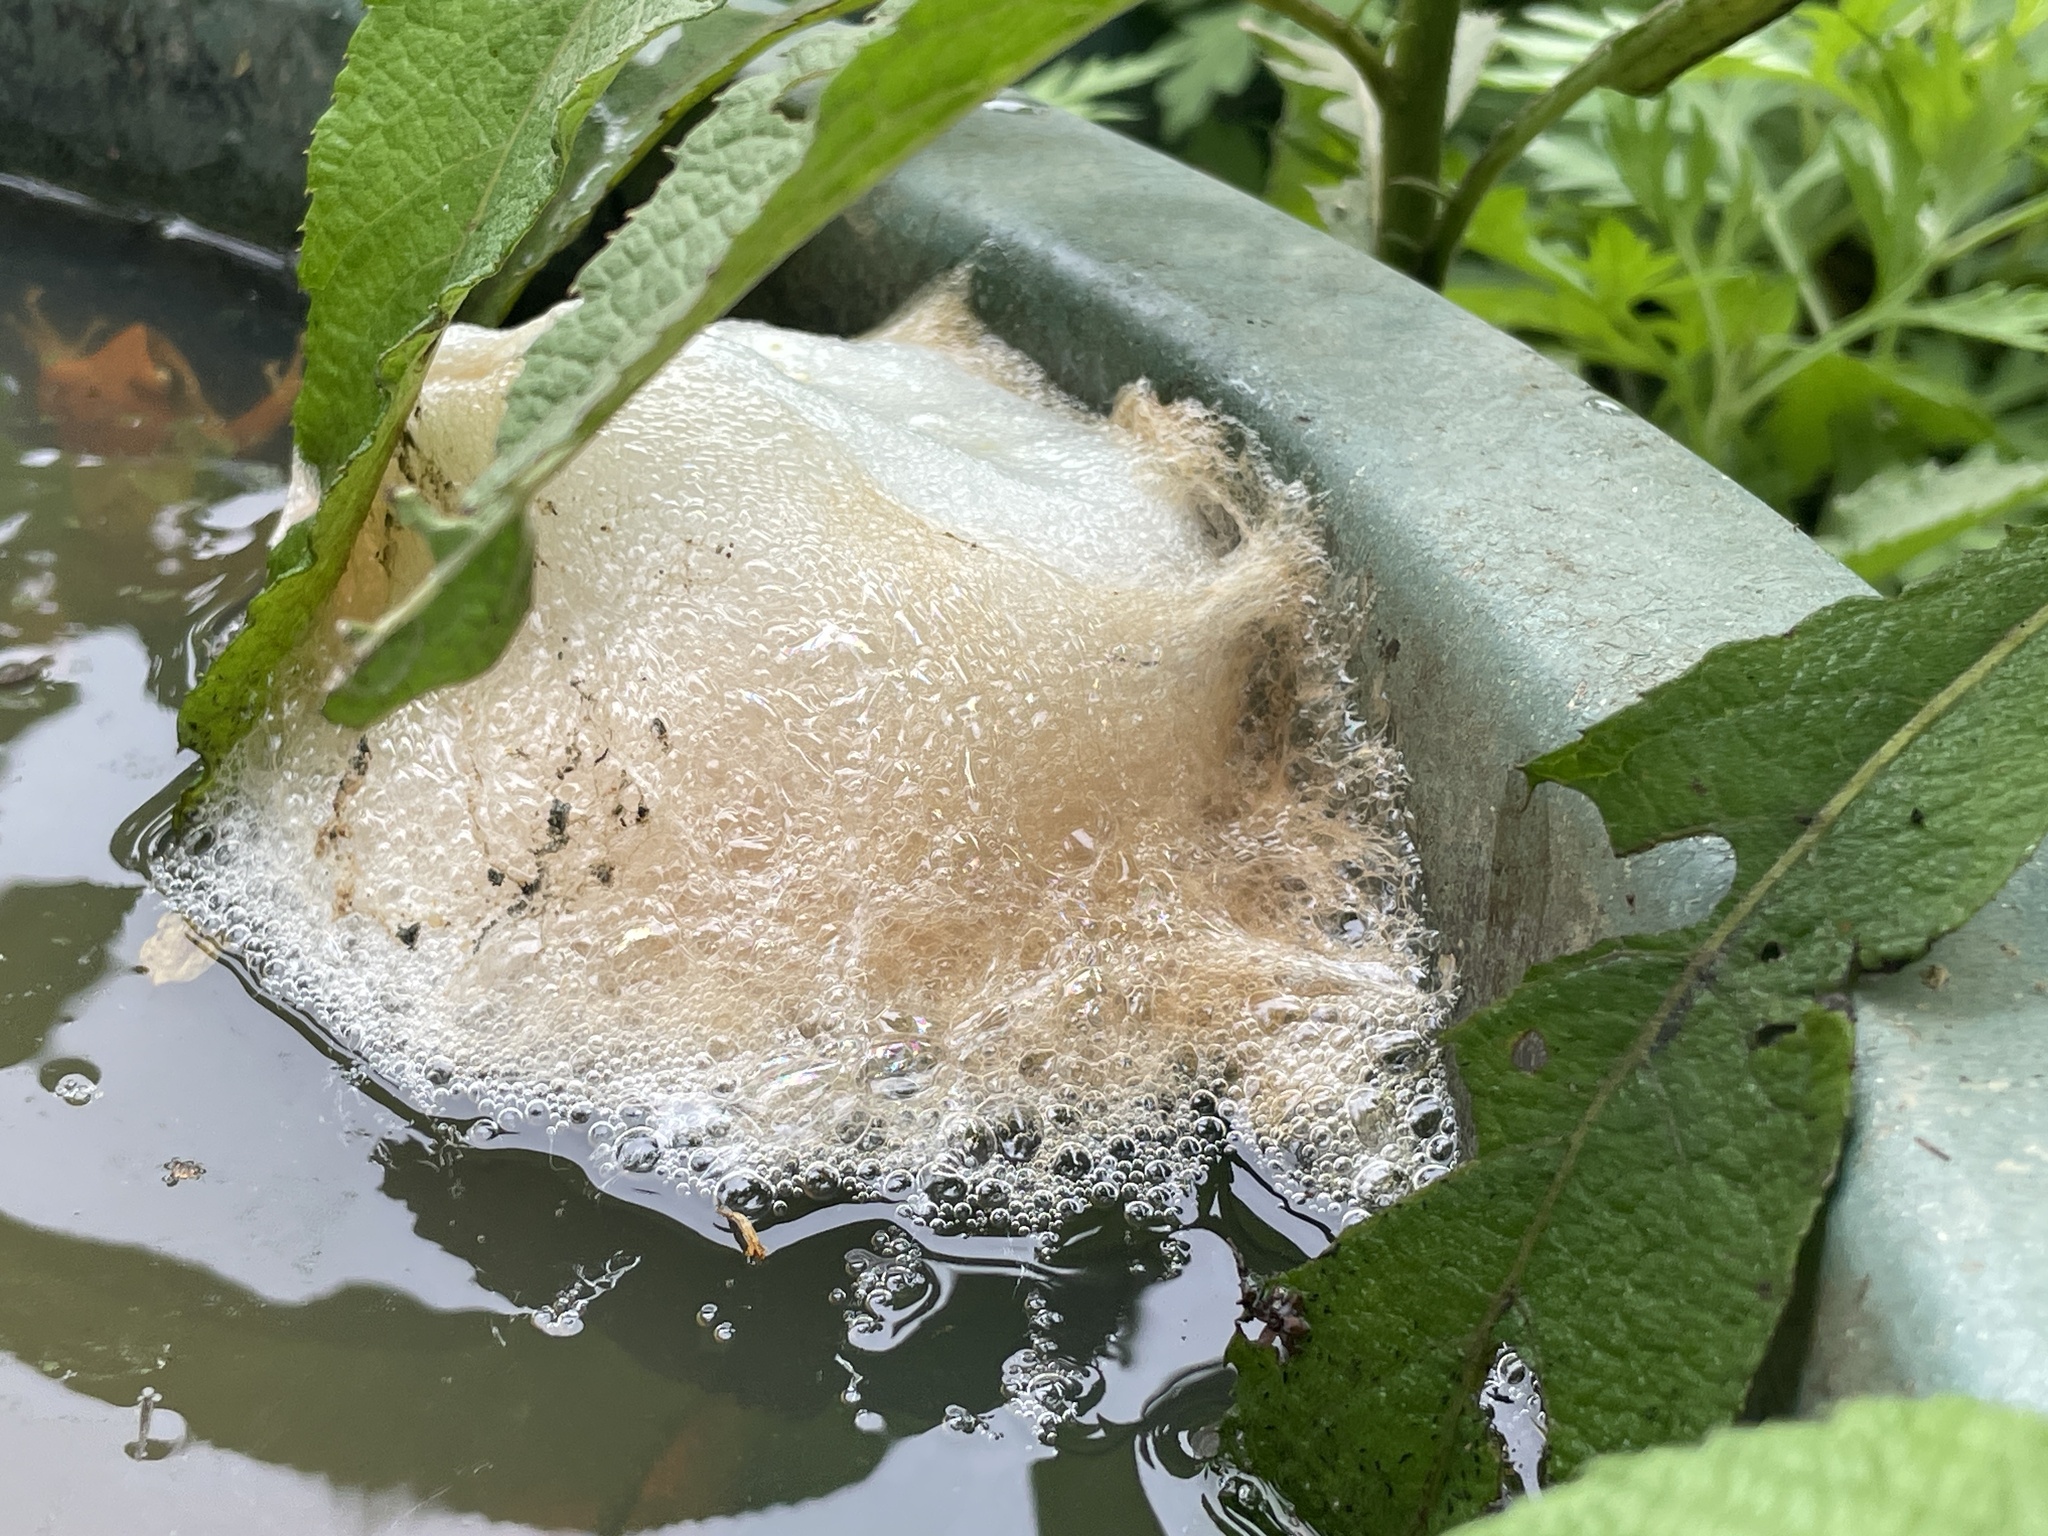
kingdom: Animalia
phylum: Chordata
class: Amphibia
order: Anura
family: Rhacophoridae
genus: Polypedates
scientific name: Polypedates megacephalus
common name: Hong kong whipping frog
